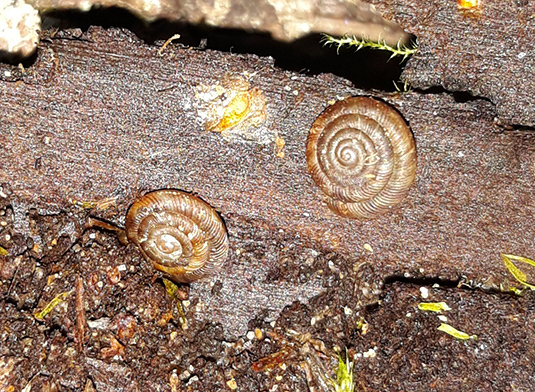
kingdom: Animalia
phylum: Mollusca
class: Gastropoda
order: Stylommatophora
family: Discidae
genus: Discus
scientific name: Discus rotundatus
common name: Rounded snail
